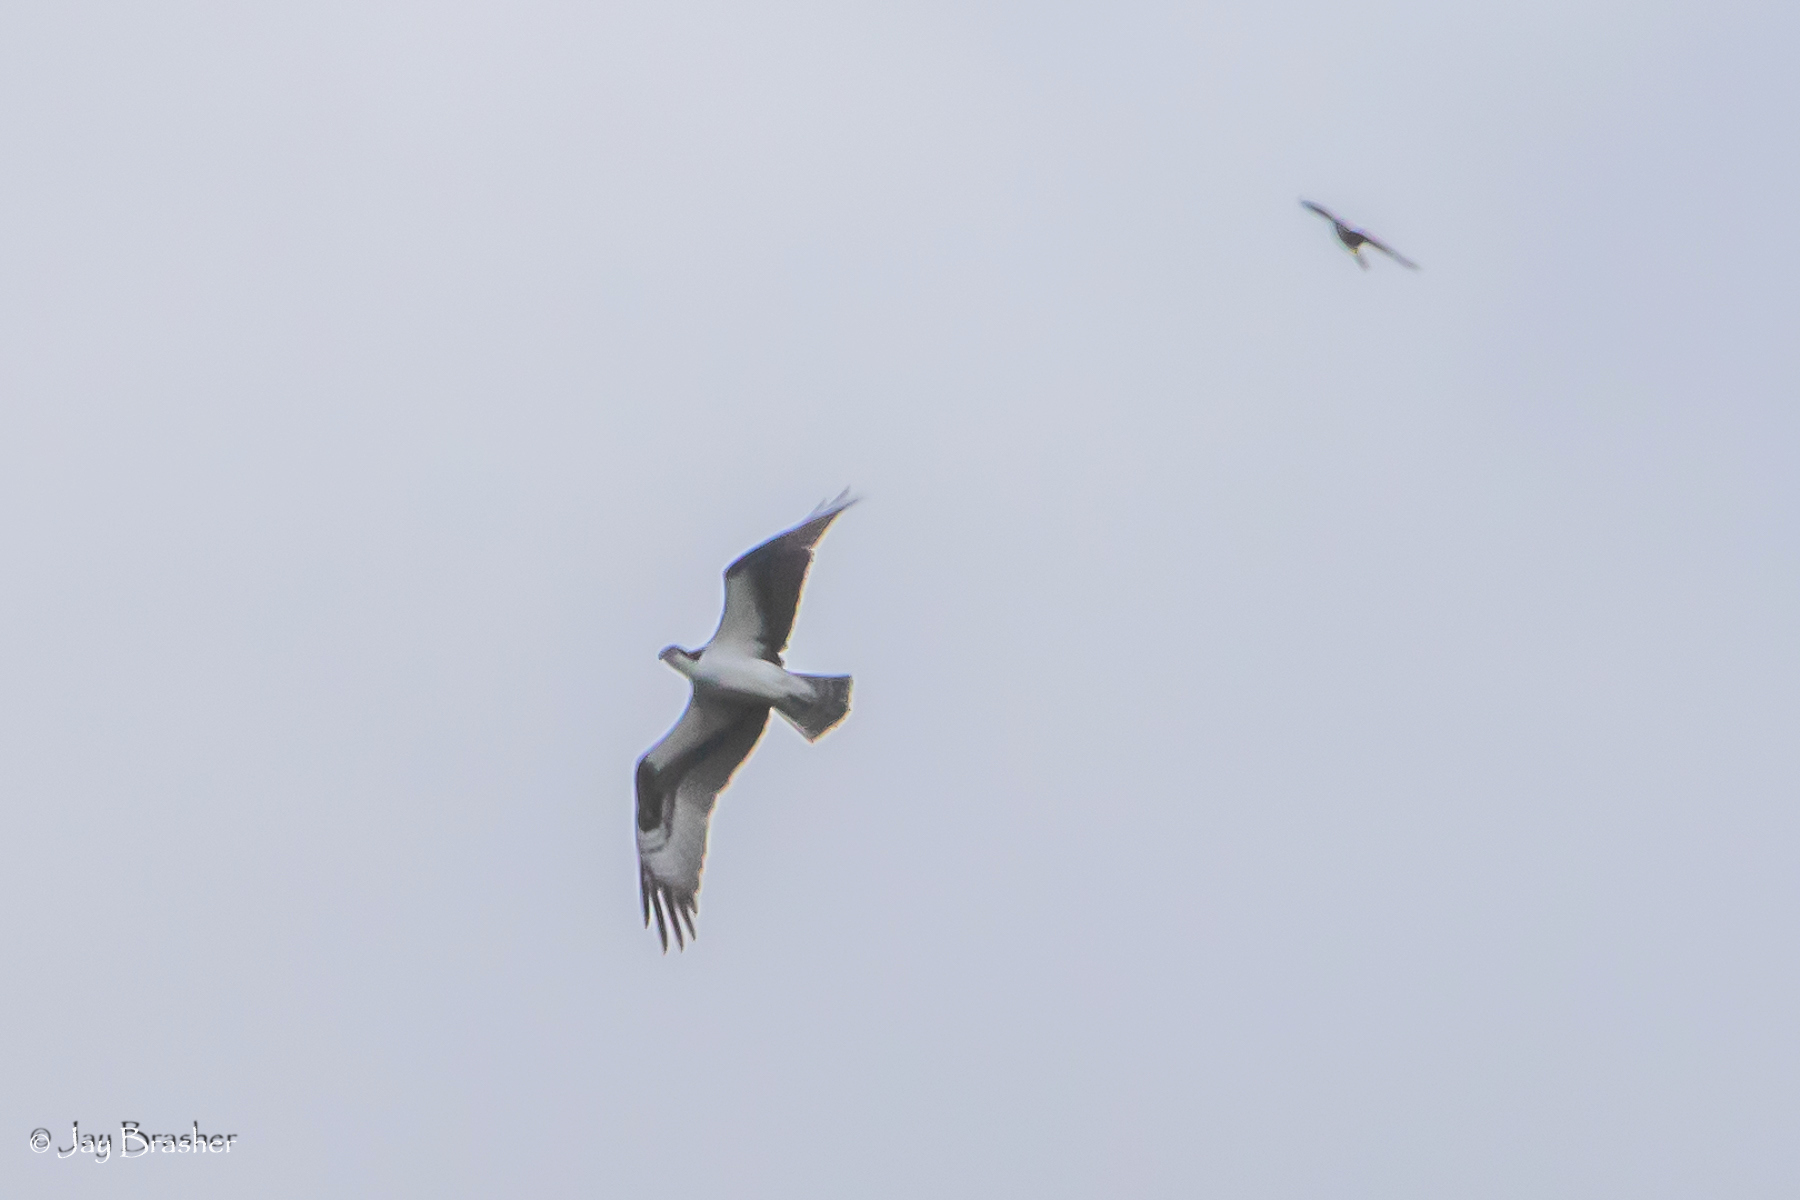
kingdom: Animalia
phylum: Chordata
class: Aves
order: Accipitriformes
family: Pandionidae
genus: Pandion
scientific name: Pandion haliaetus
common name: Osprey
